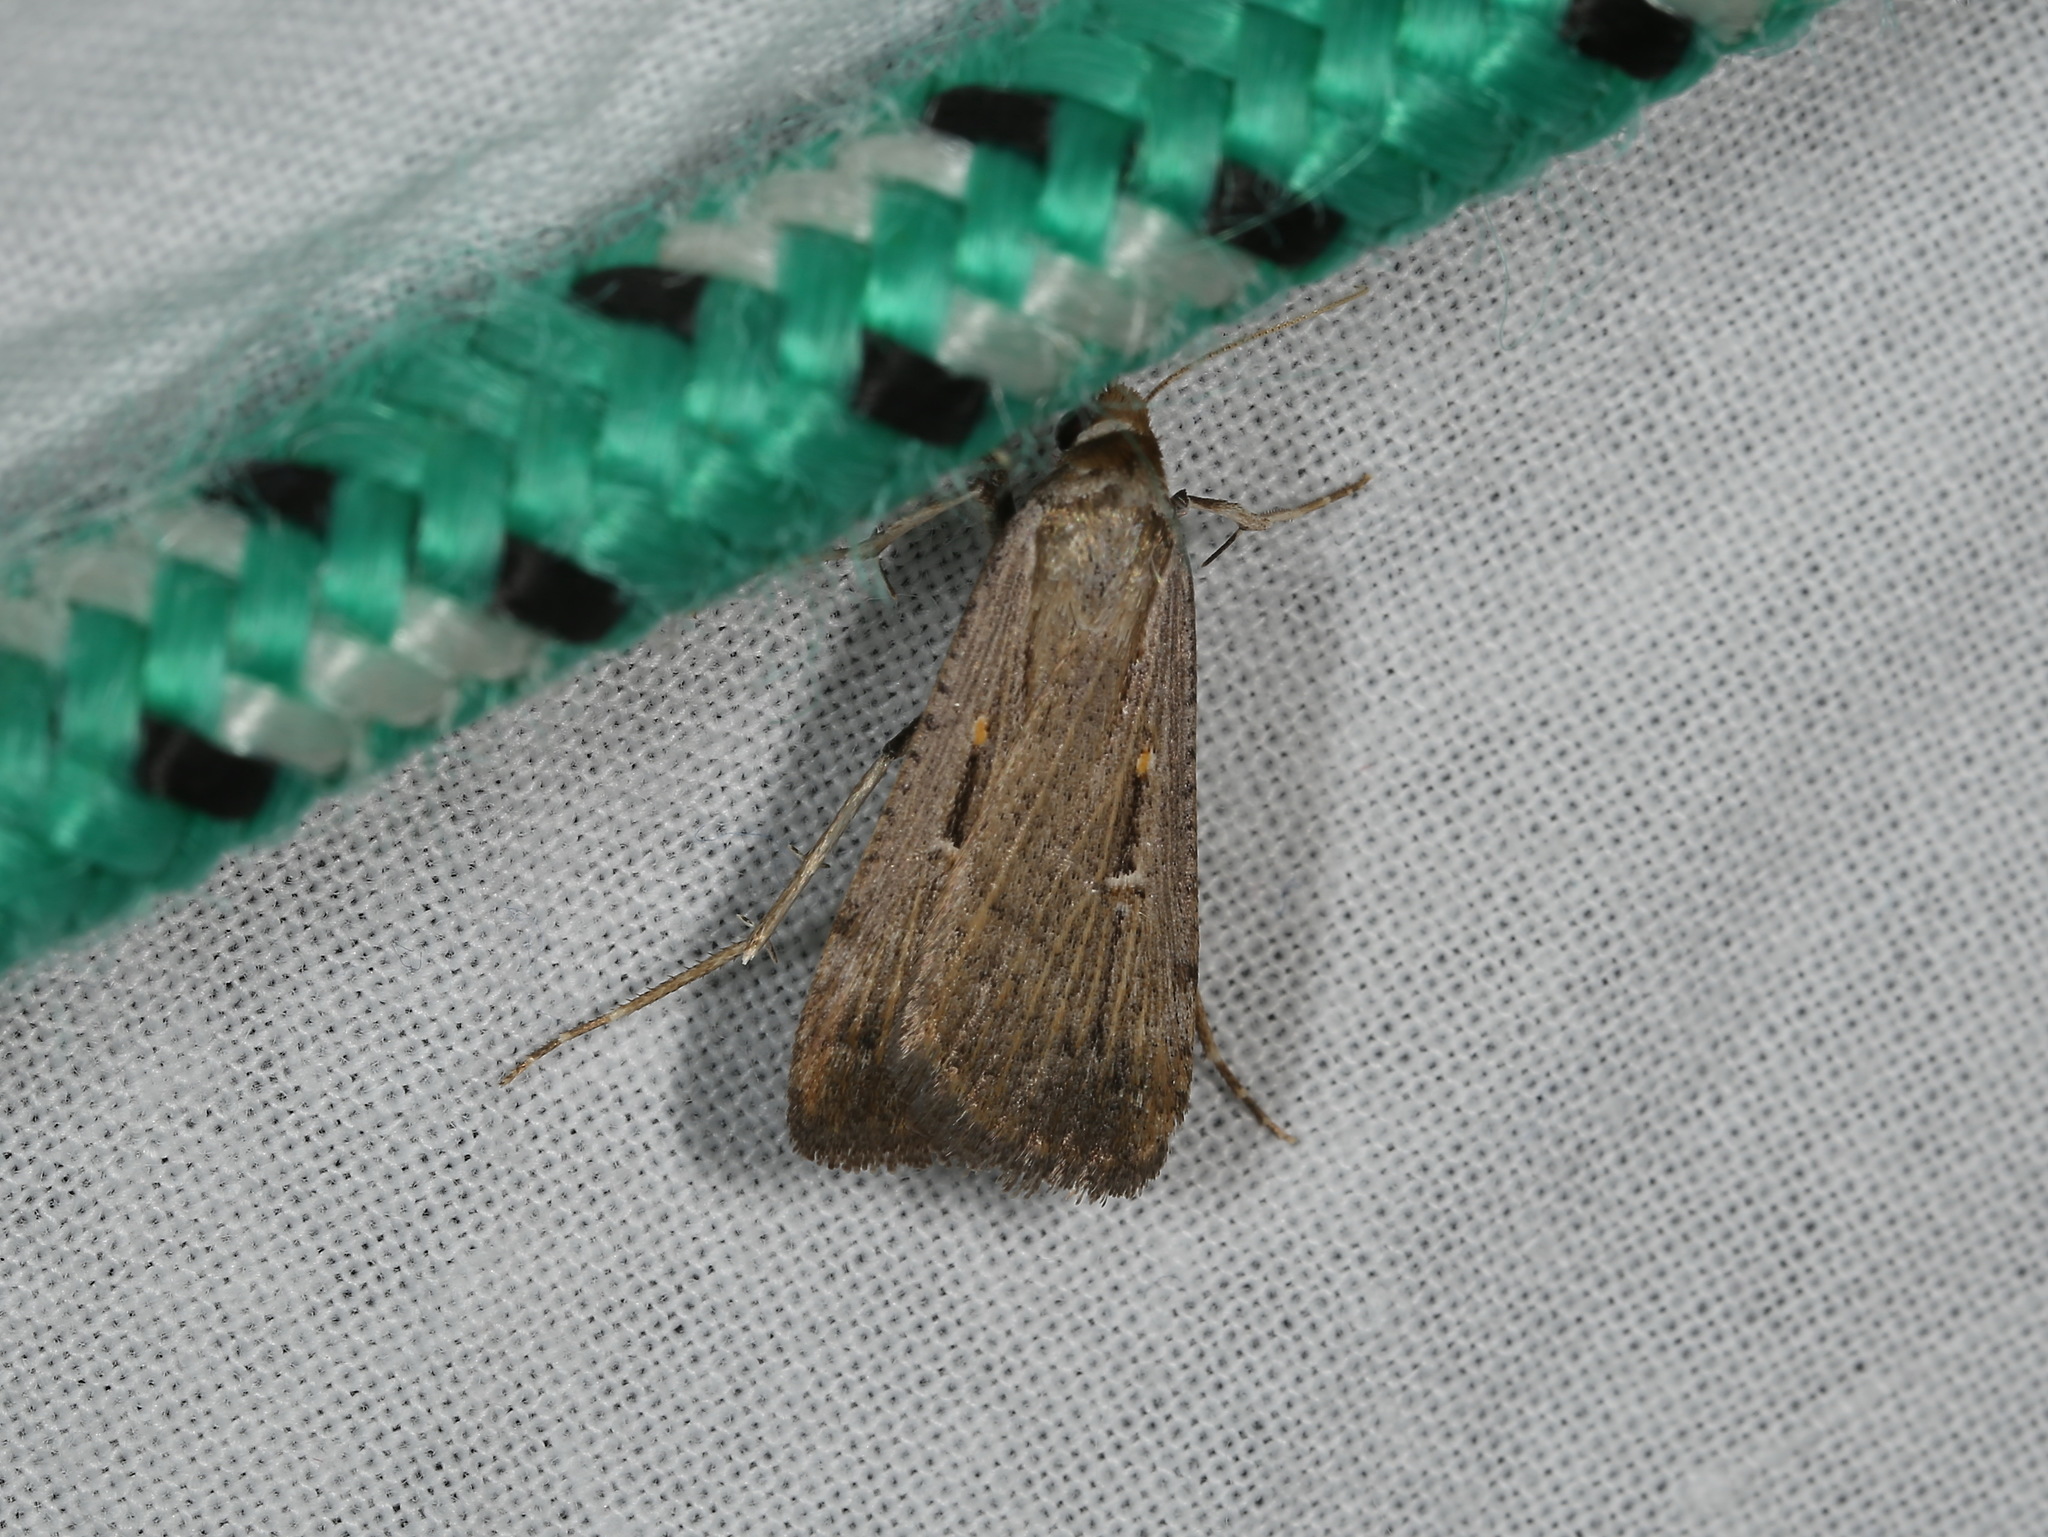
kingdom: Animalia
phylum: Arthropoda
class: Insecta
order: Lepidoptera
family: Noctuidae
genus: Tathorhynchus
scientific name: Tathorhynchus fallax
